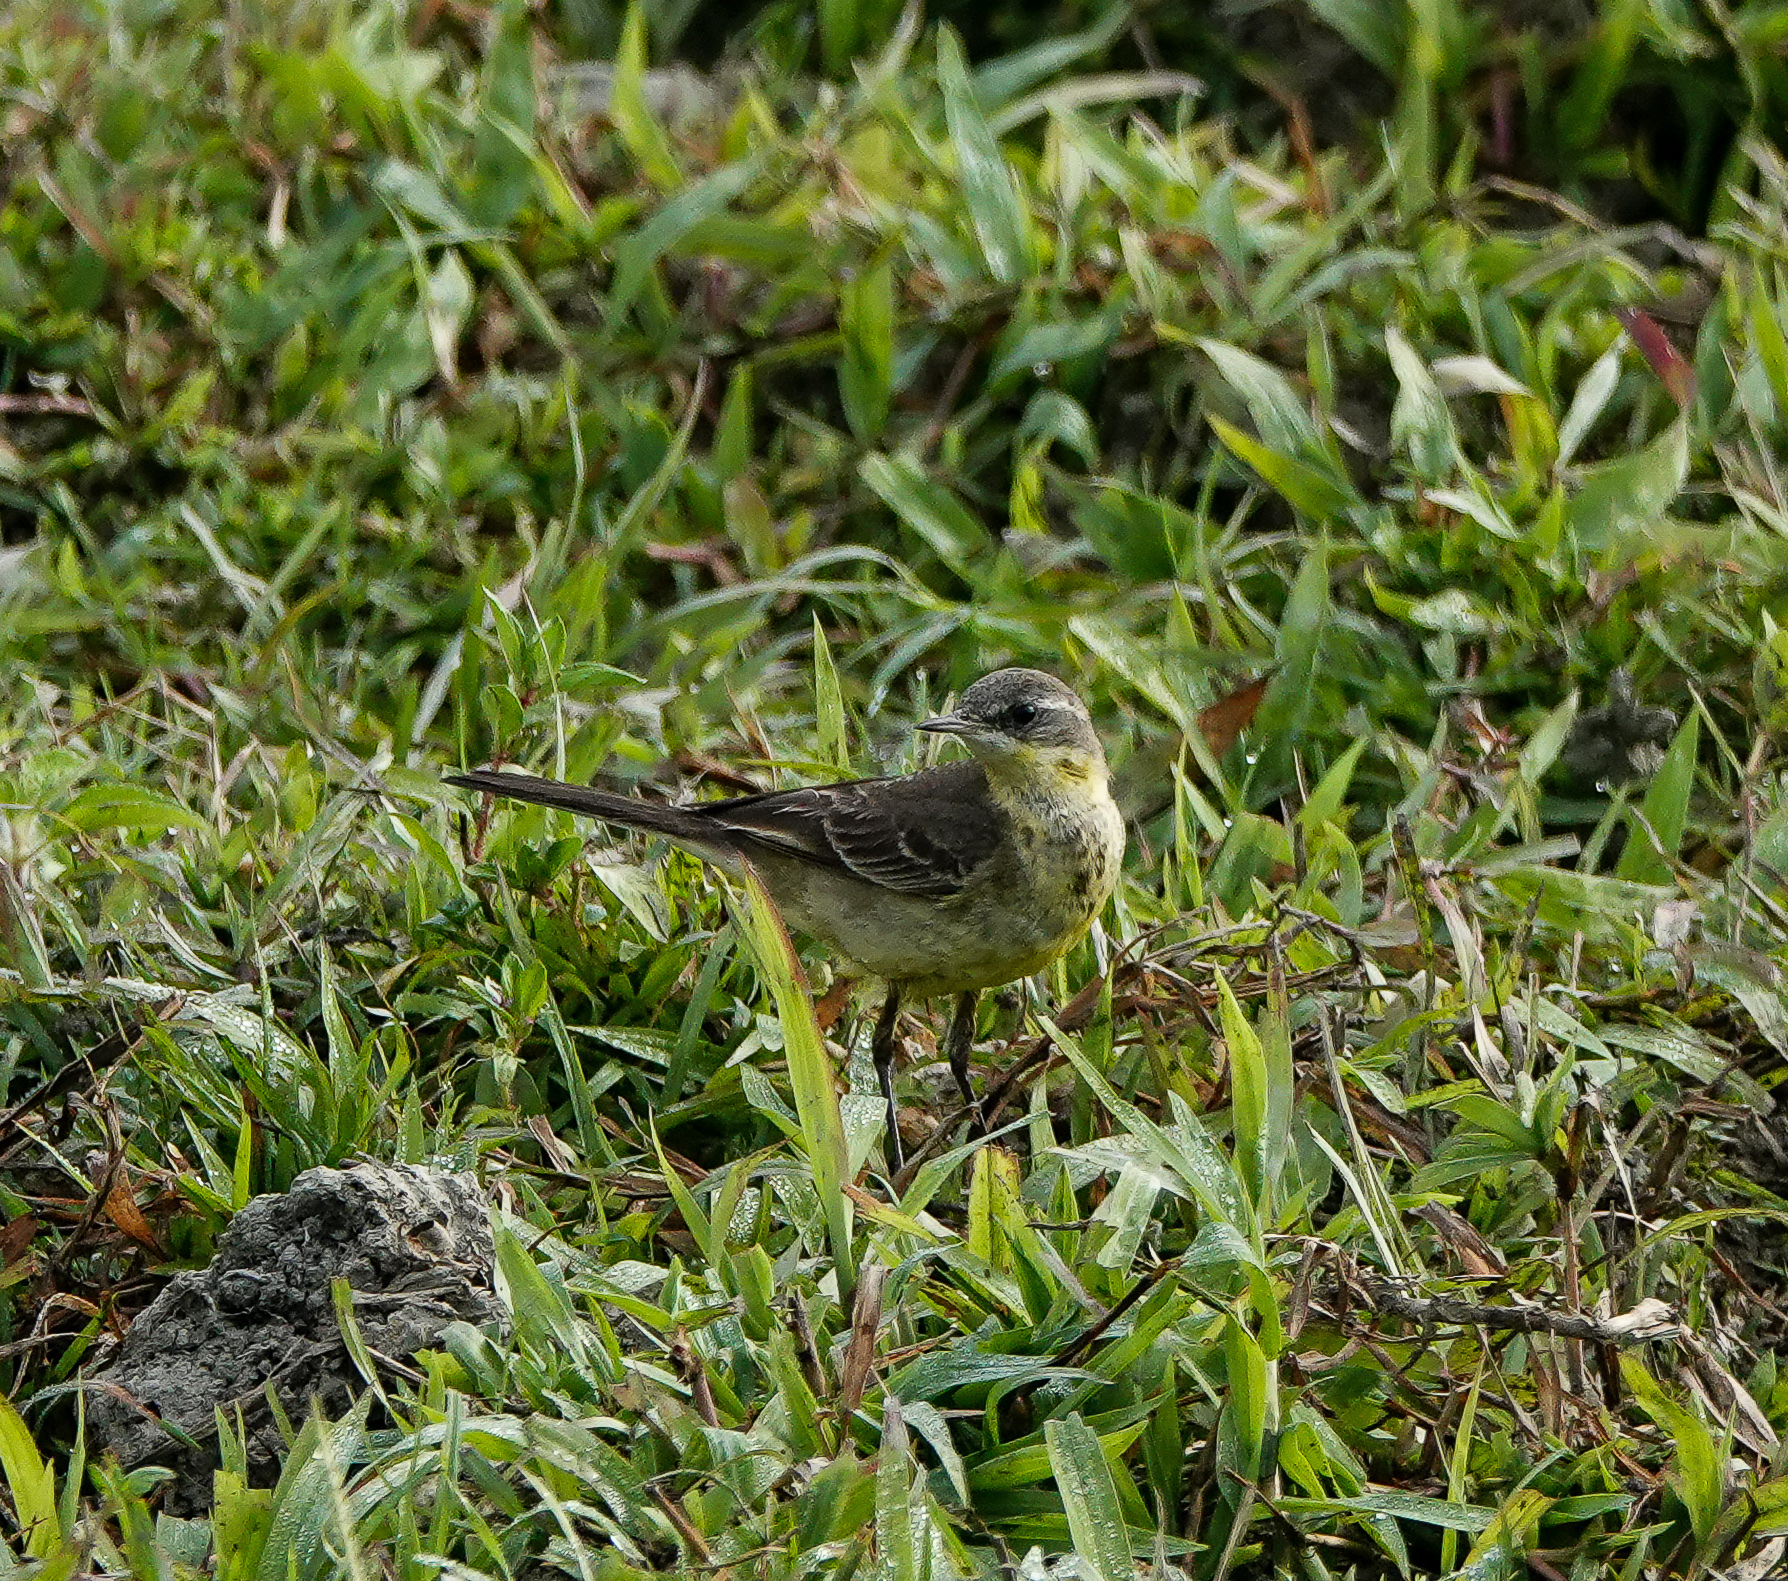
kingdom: Animalia
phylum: Chordata
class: Aves
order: Passeriformes
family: Motacillidae
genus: Motacilla
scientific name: Motacilla flava
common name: Western yellow wagtail
